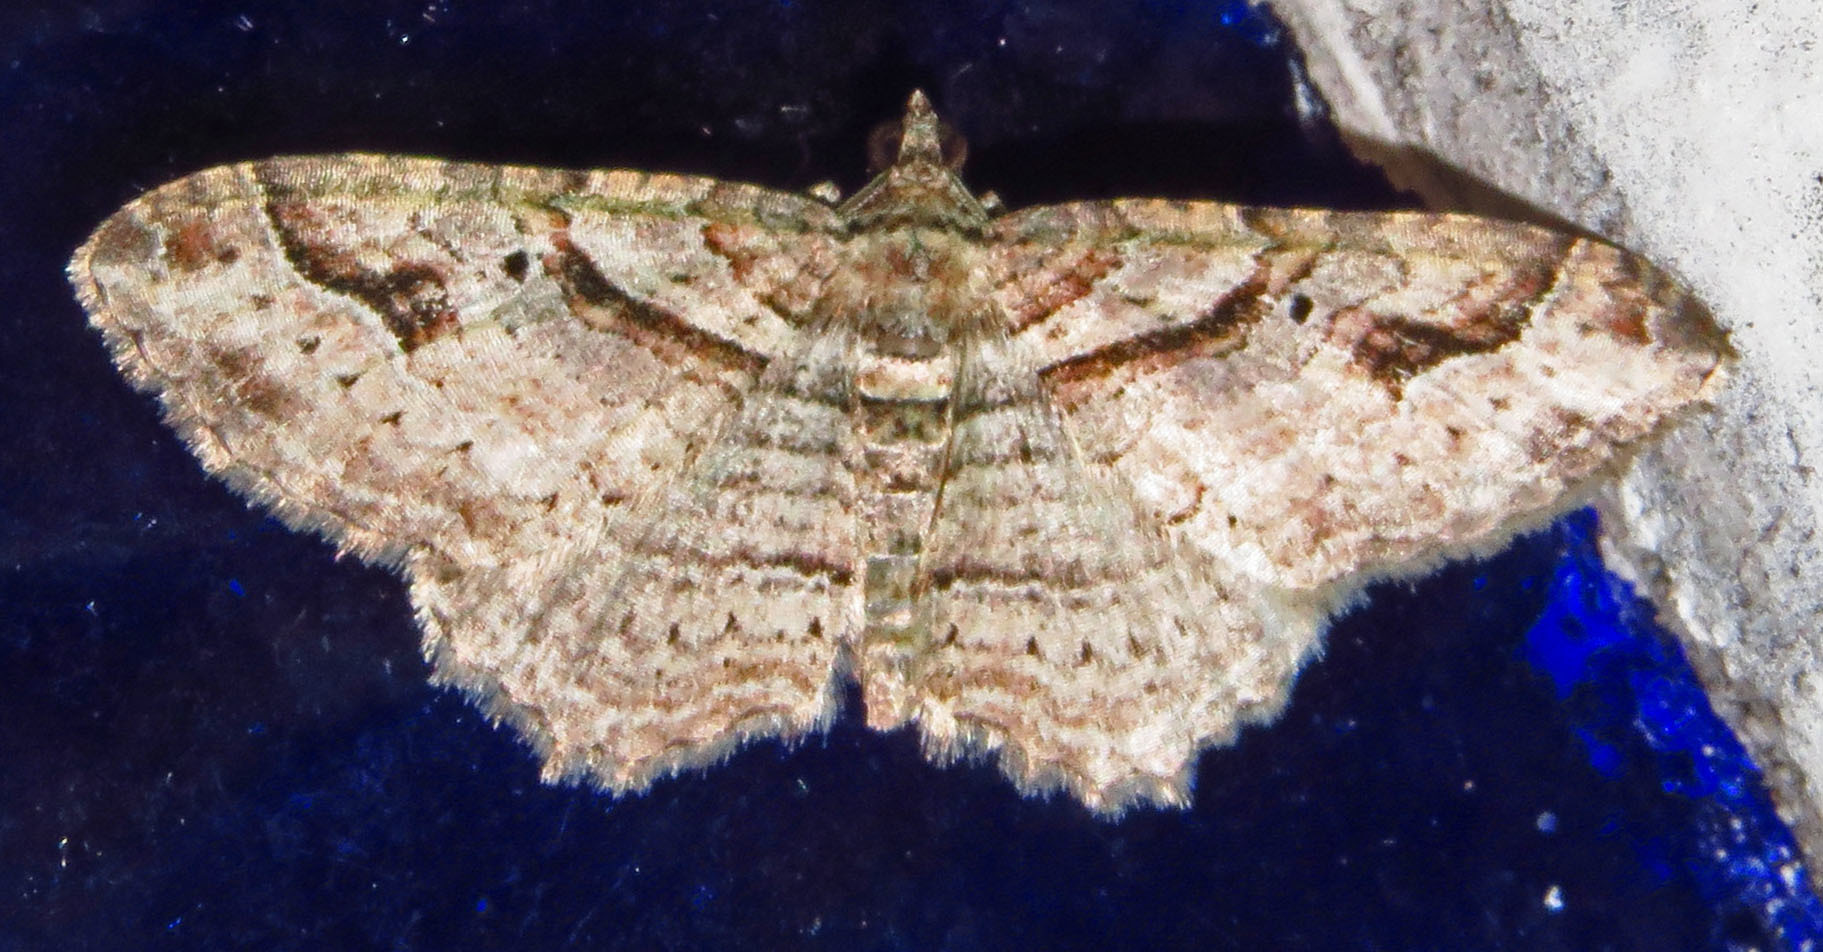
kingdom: Animalia
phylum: Arthropoda
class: Insecta
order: Lepidoptera
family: Geometridae
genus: Costaconvexa
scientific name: Costaconvexa centrostrigaria
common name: Bent-line carpet
